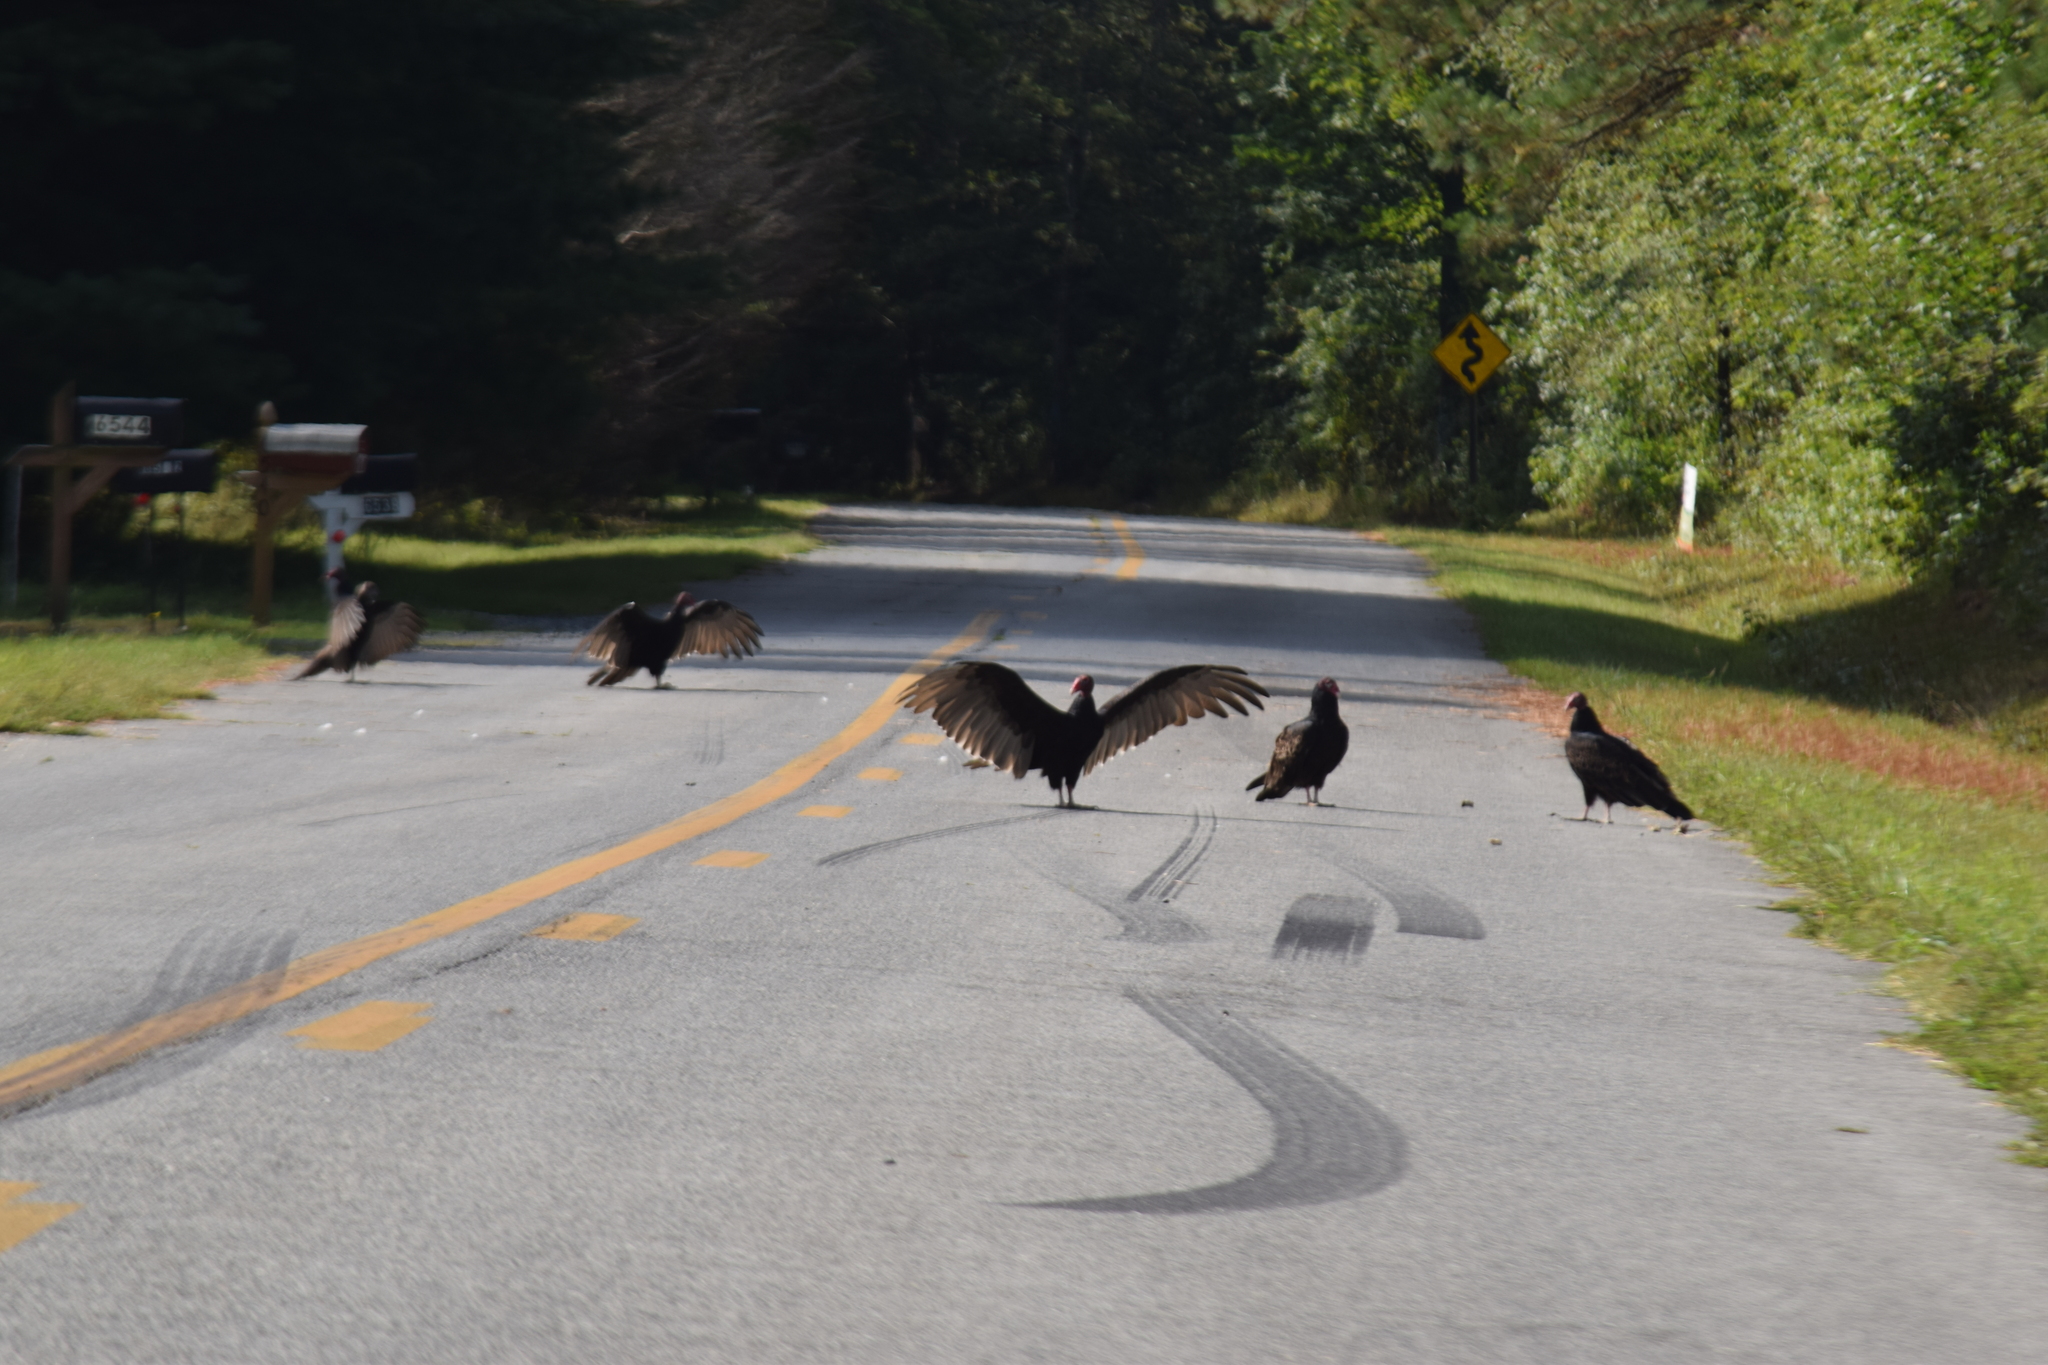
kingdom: Animalia
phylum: Chordata
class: Aves
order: Accipitriformes
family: Cathartidae
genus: Cathartes
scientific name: Cathartes aura
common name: Turkey vulture
